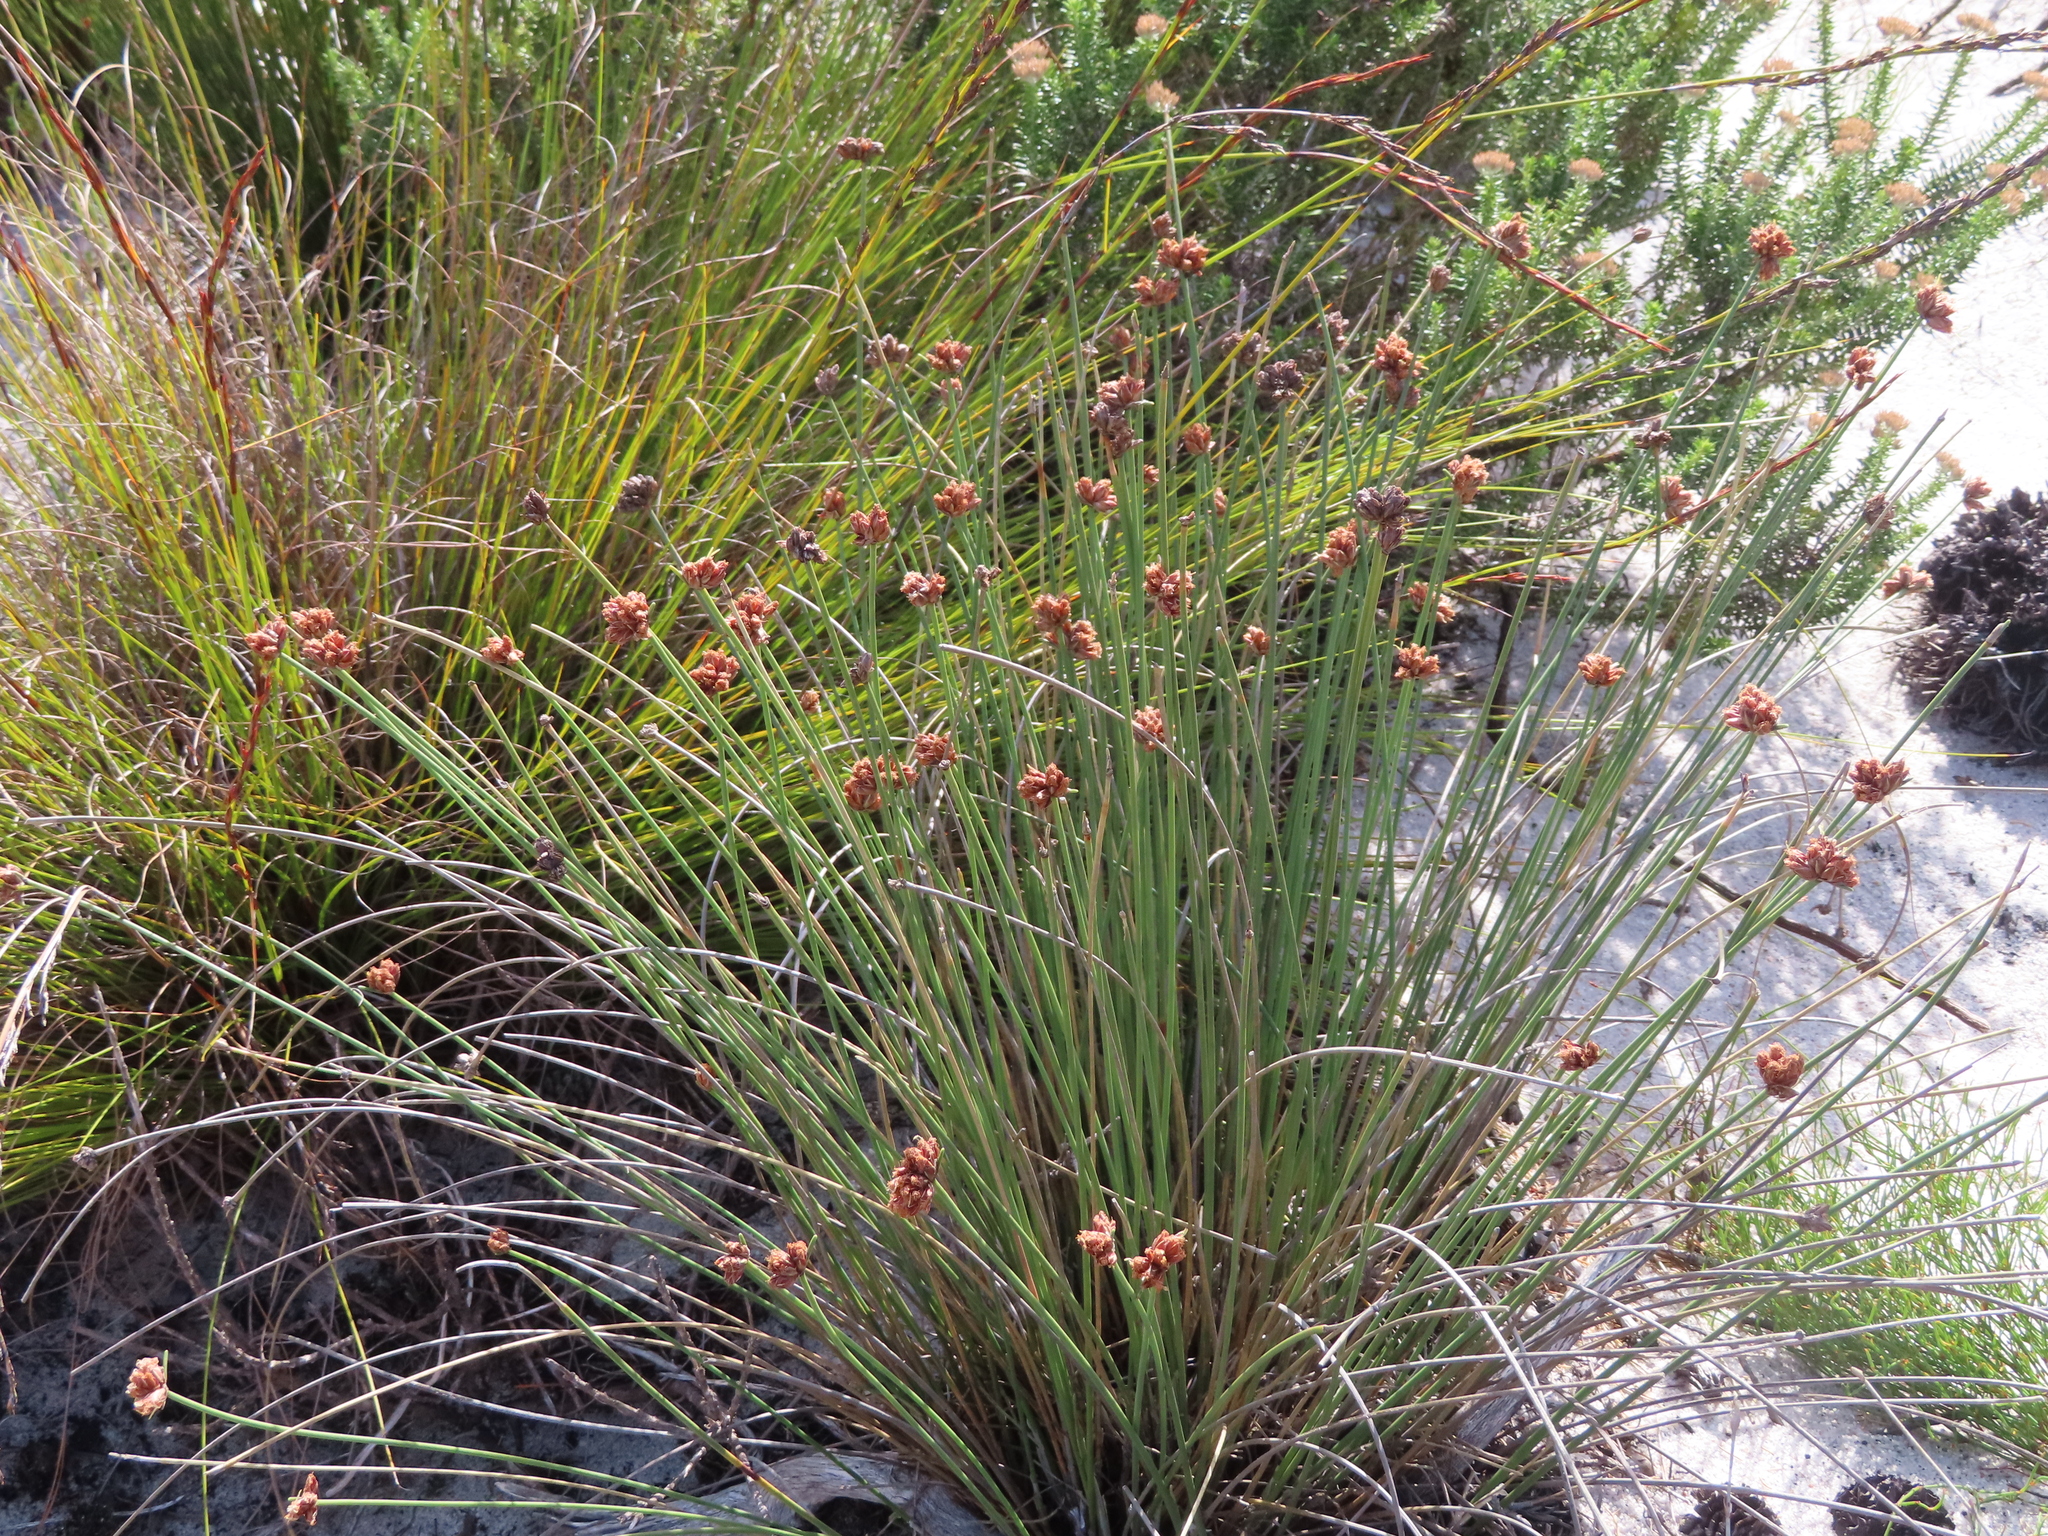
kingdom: Plantae
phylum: Tracheophyta
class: Liliopsida
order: Poales
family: Cyperaceae
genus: Ficinia
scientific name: Ficinia bulbosa
